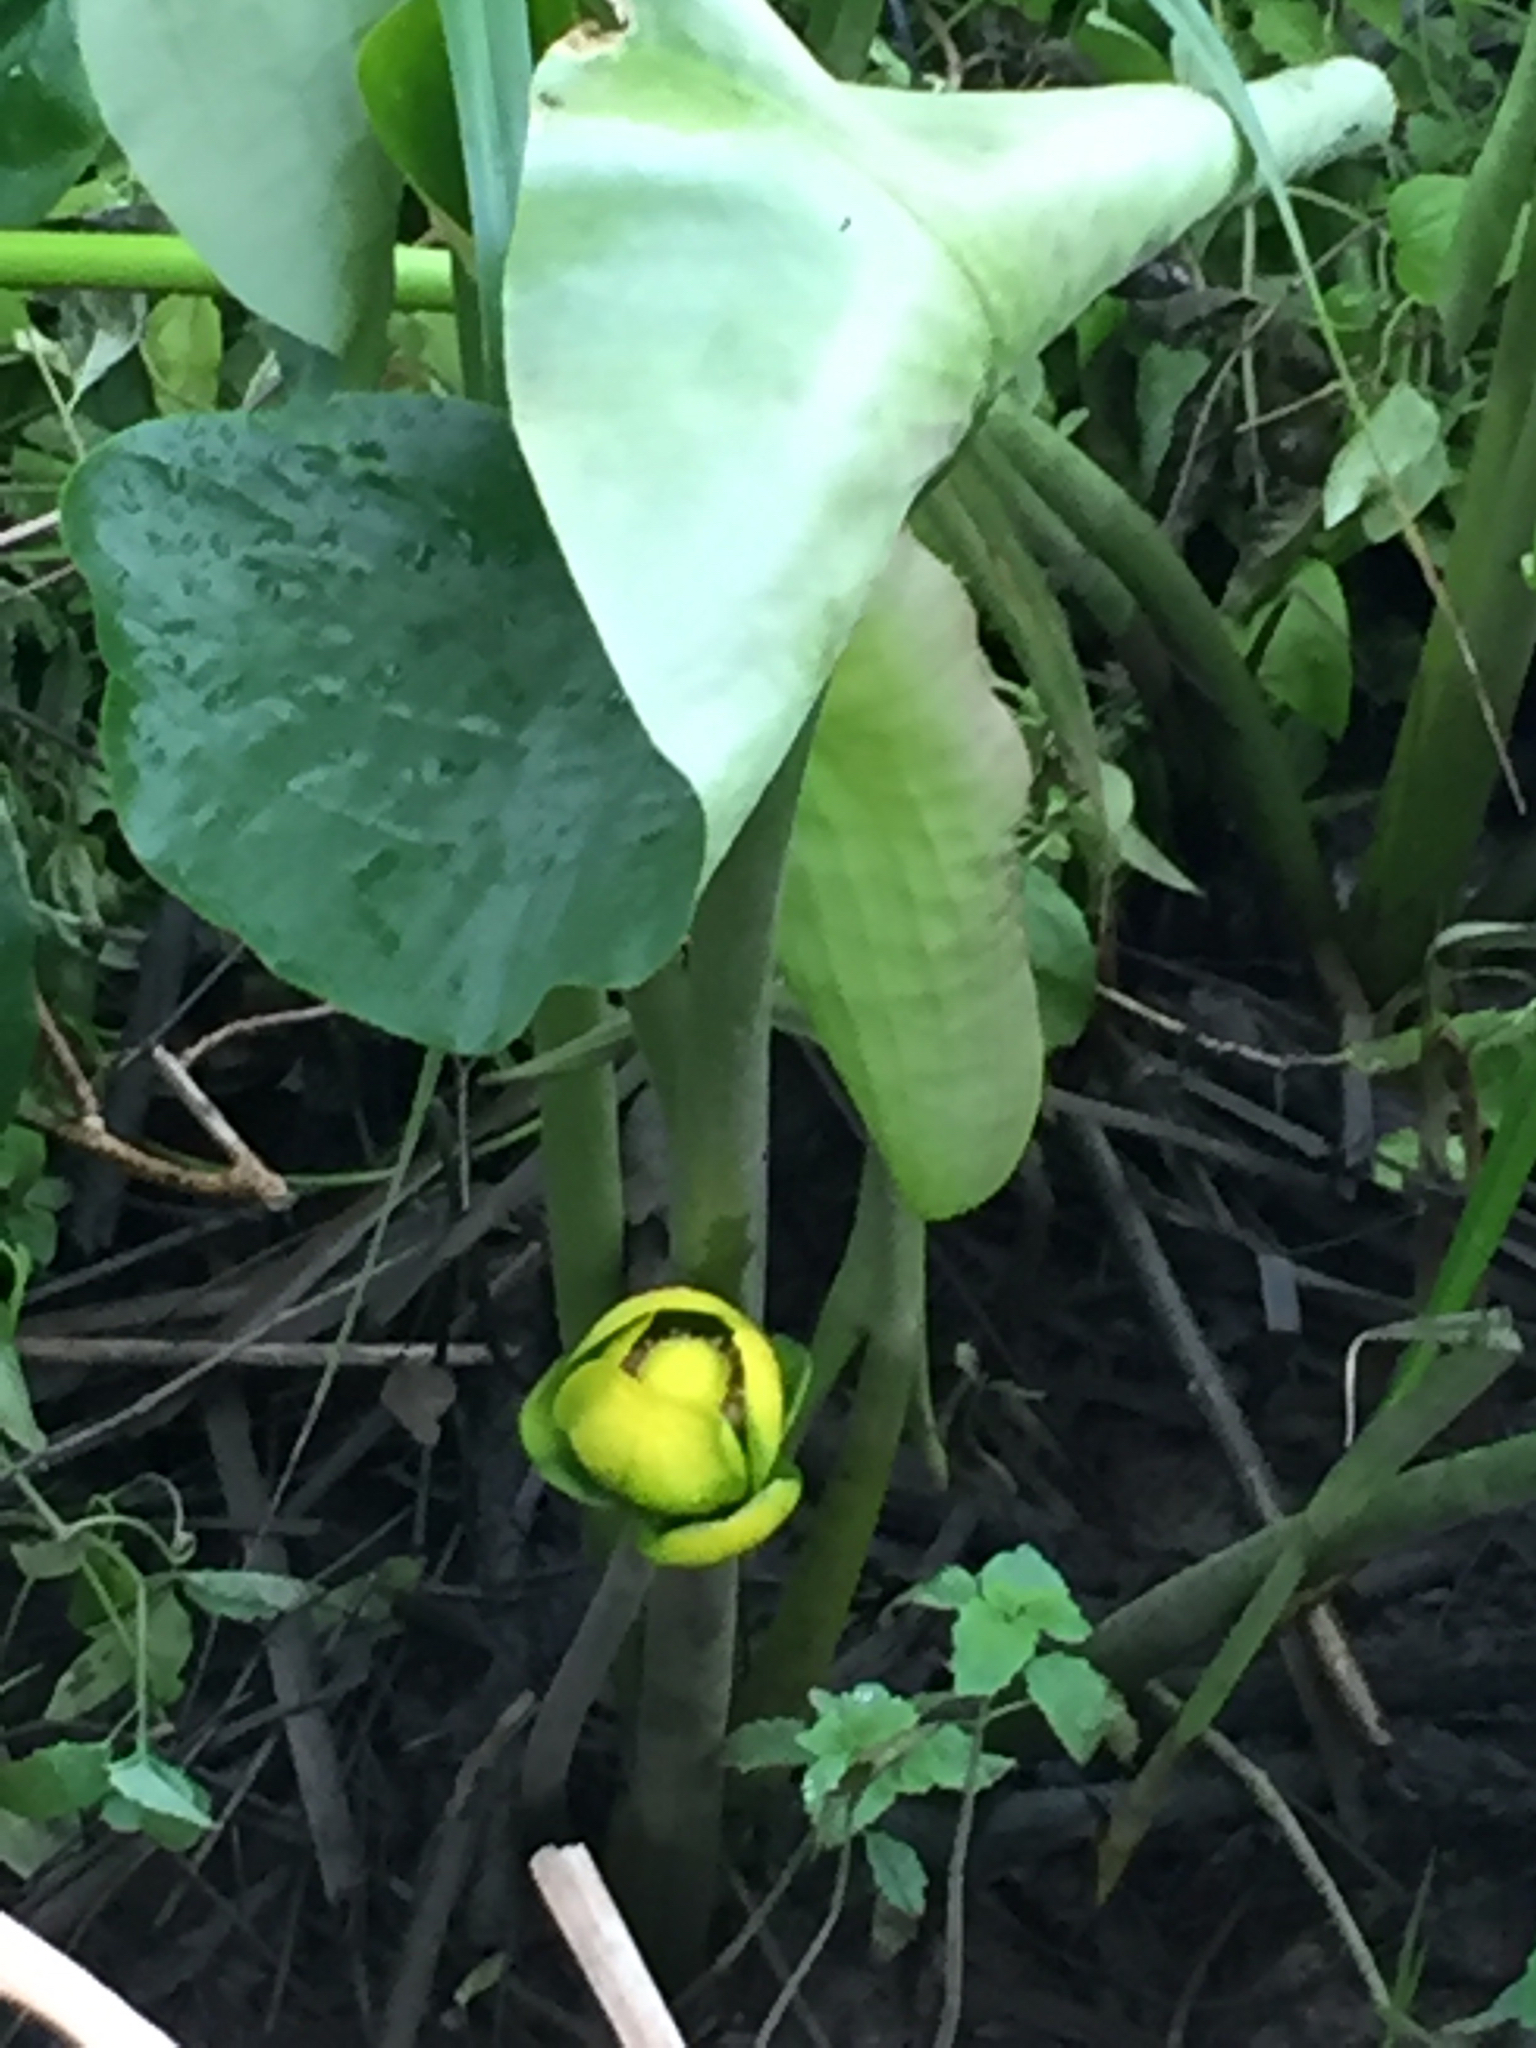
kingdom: Plantae
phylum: Tracheophyta
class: Magnoliopsida
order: Nymphaeales
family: Nymphaeaceae
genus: Nuphar
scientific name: Nuphar advena
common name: Spatter-dock
